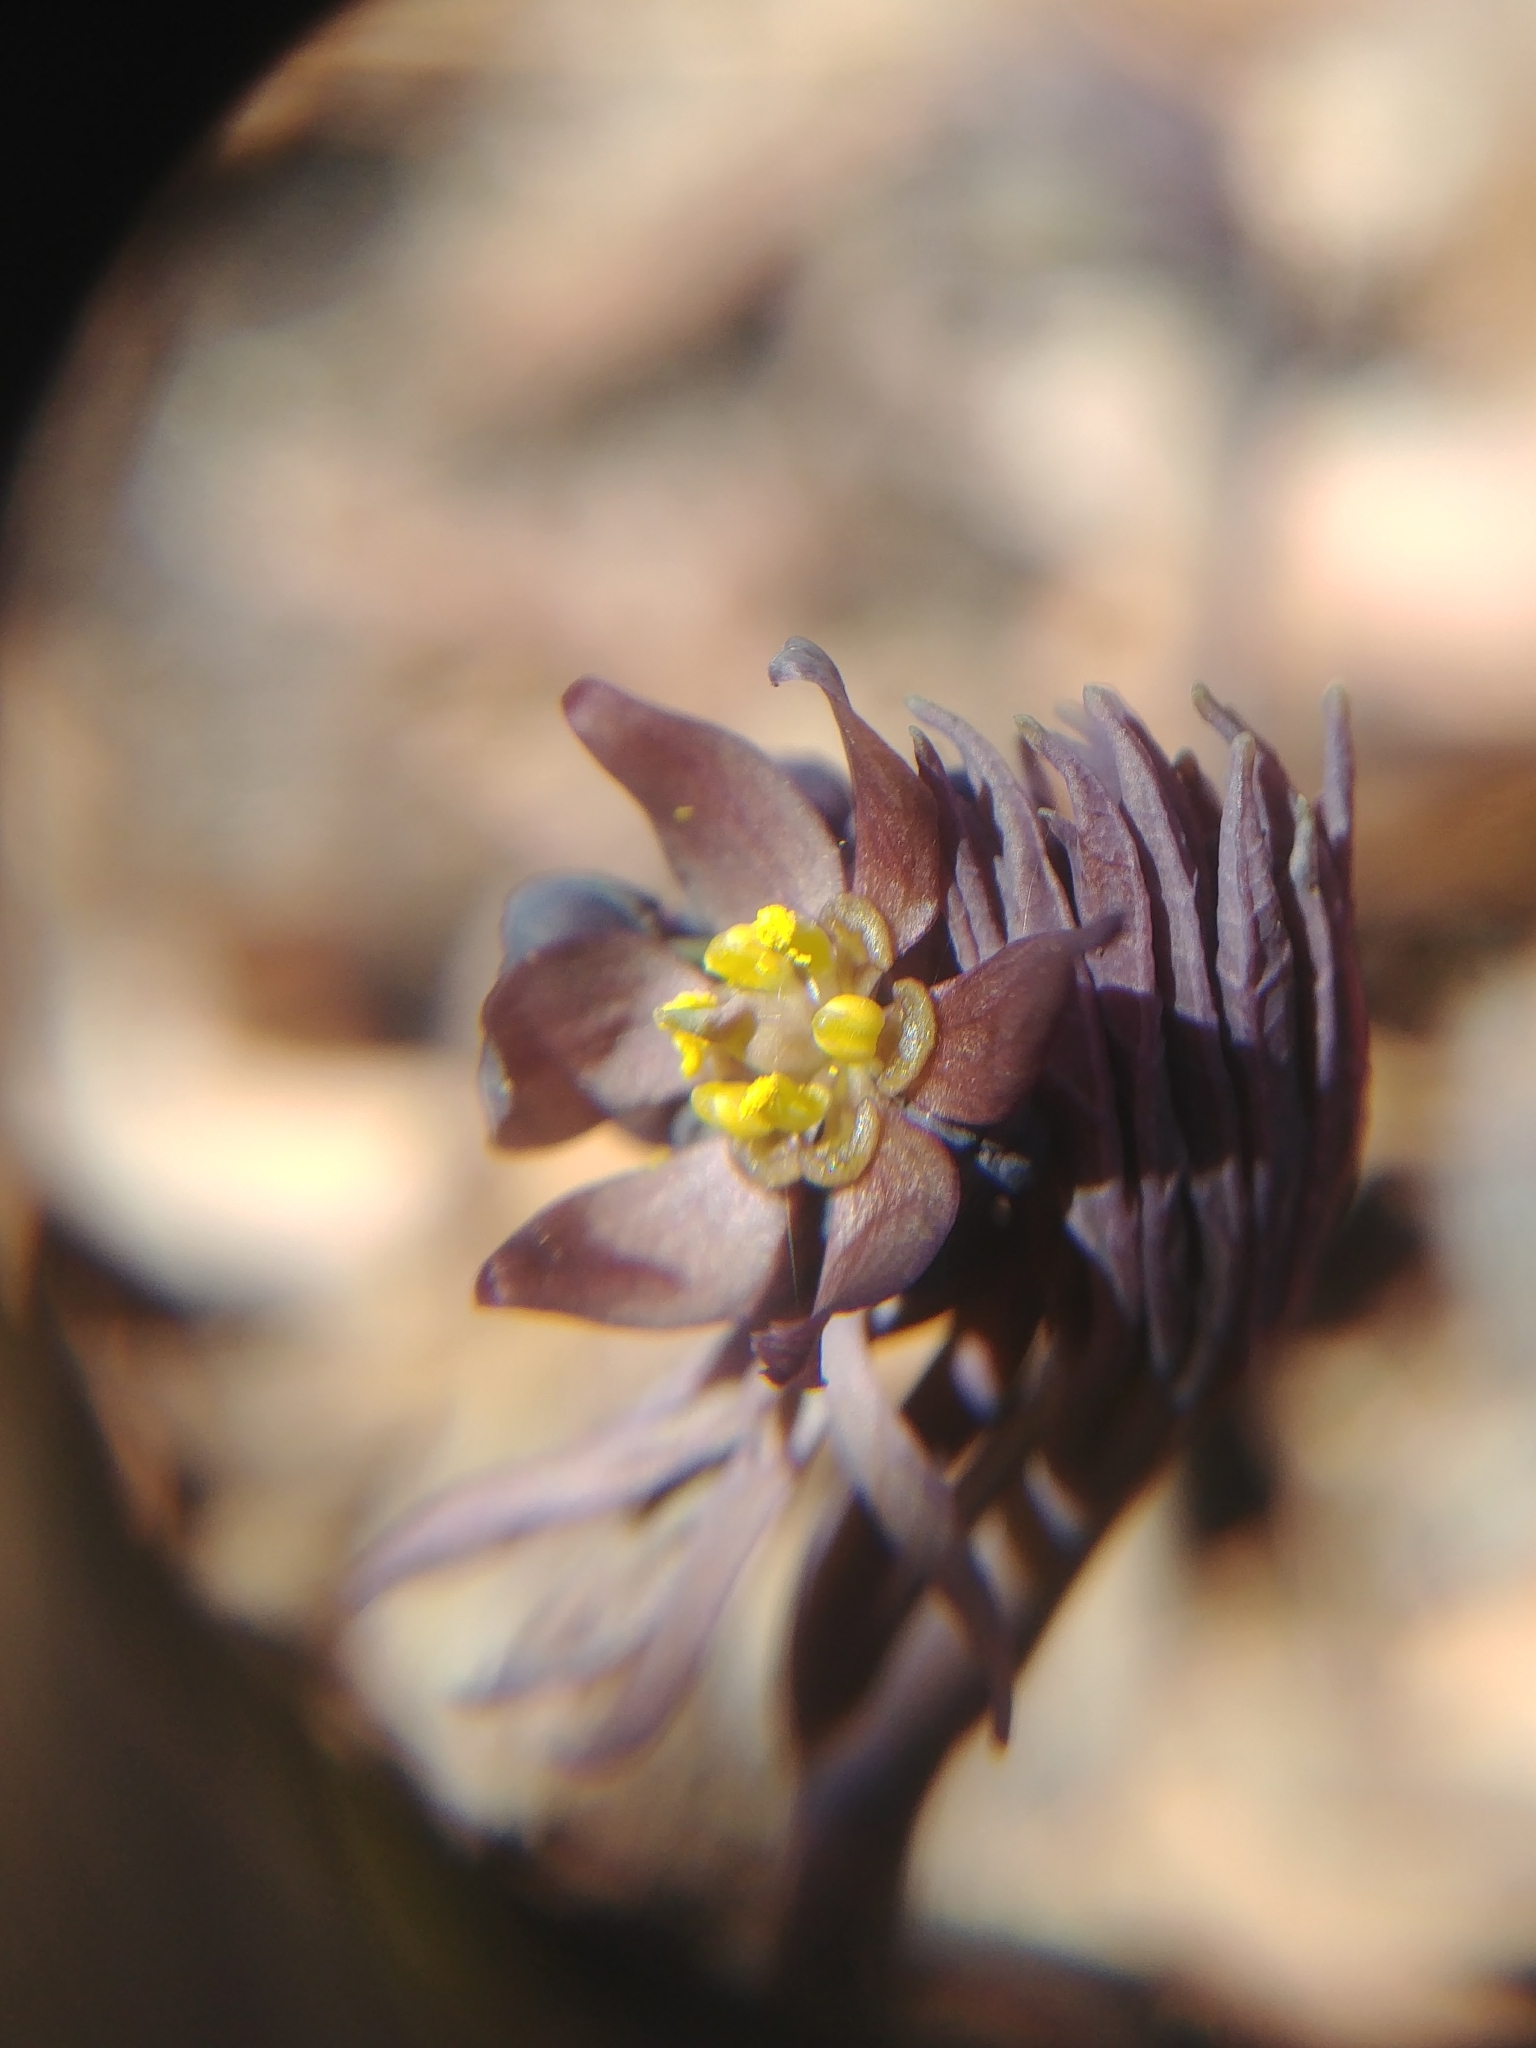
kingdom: Plantae
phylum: Tracheophyta
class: Magnoliopsida
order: Ranunculales
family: Berberidaceae
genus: Caulophyllum
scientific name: Caulophyllum giganteum
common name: Blue cohosh
